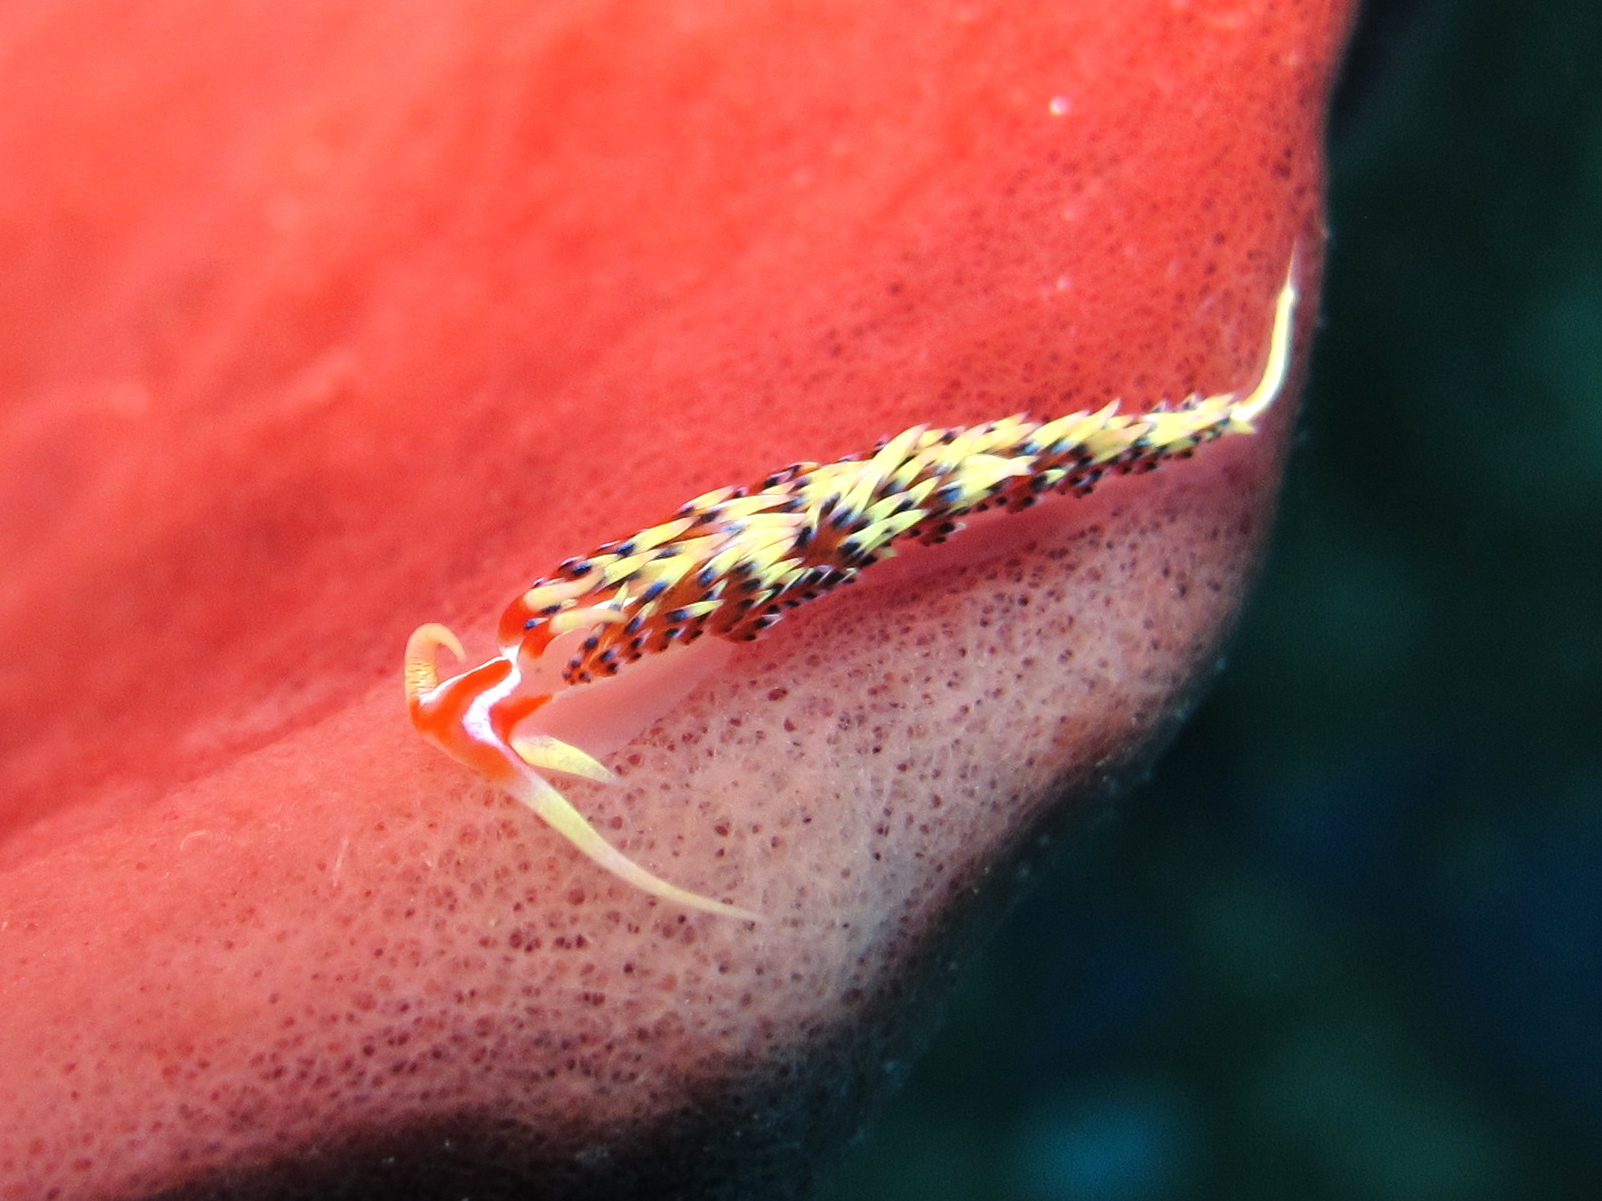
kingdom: Animalia
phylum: Mollusca
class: Gastropoda
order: Nudibranchia
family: Facelinidae
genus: Caloria
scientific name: Caloria indica
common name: Sea slug
